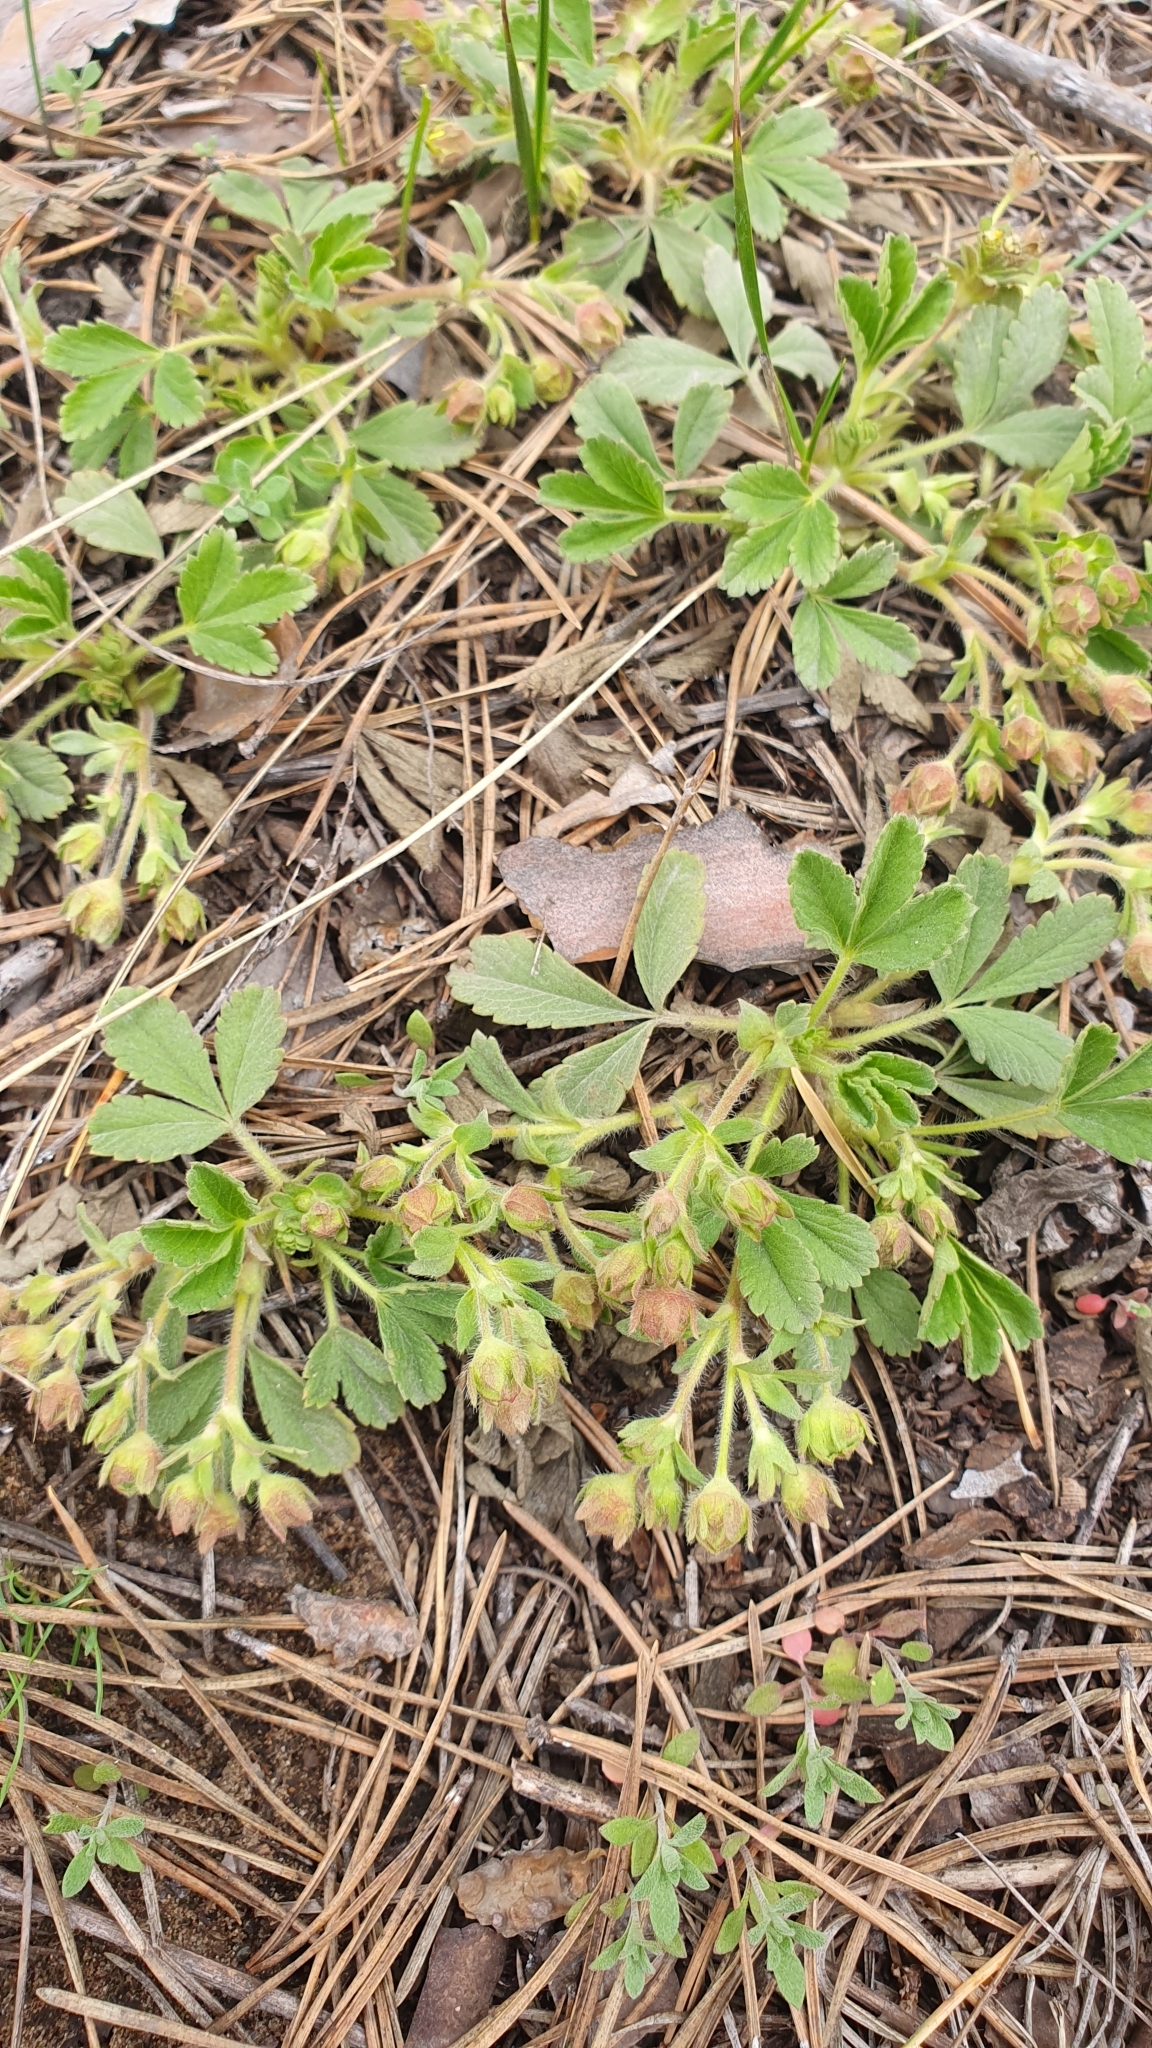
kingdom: Plantae
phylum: Tracheophyta
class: Magnoliopsida
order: Rosales
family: Rosaceae
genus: Potentilla
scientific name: Potentilla incana
